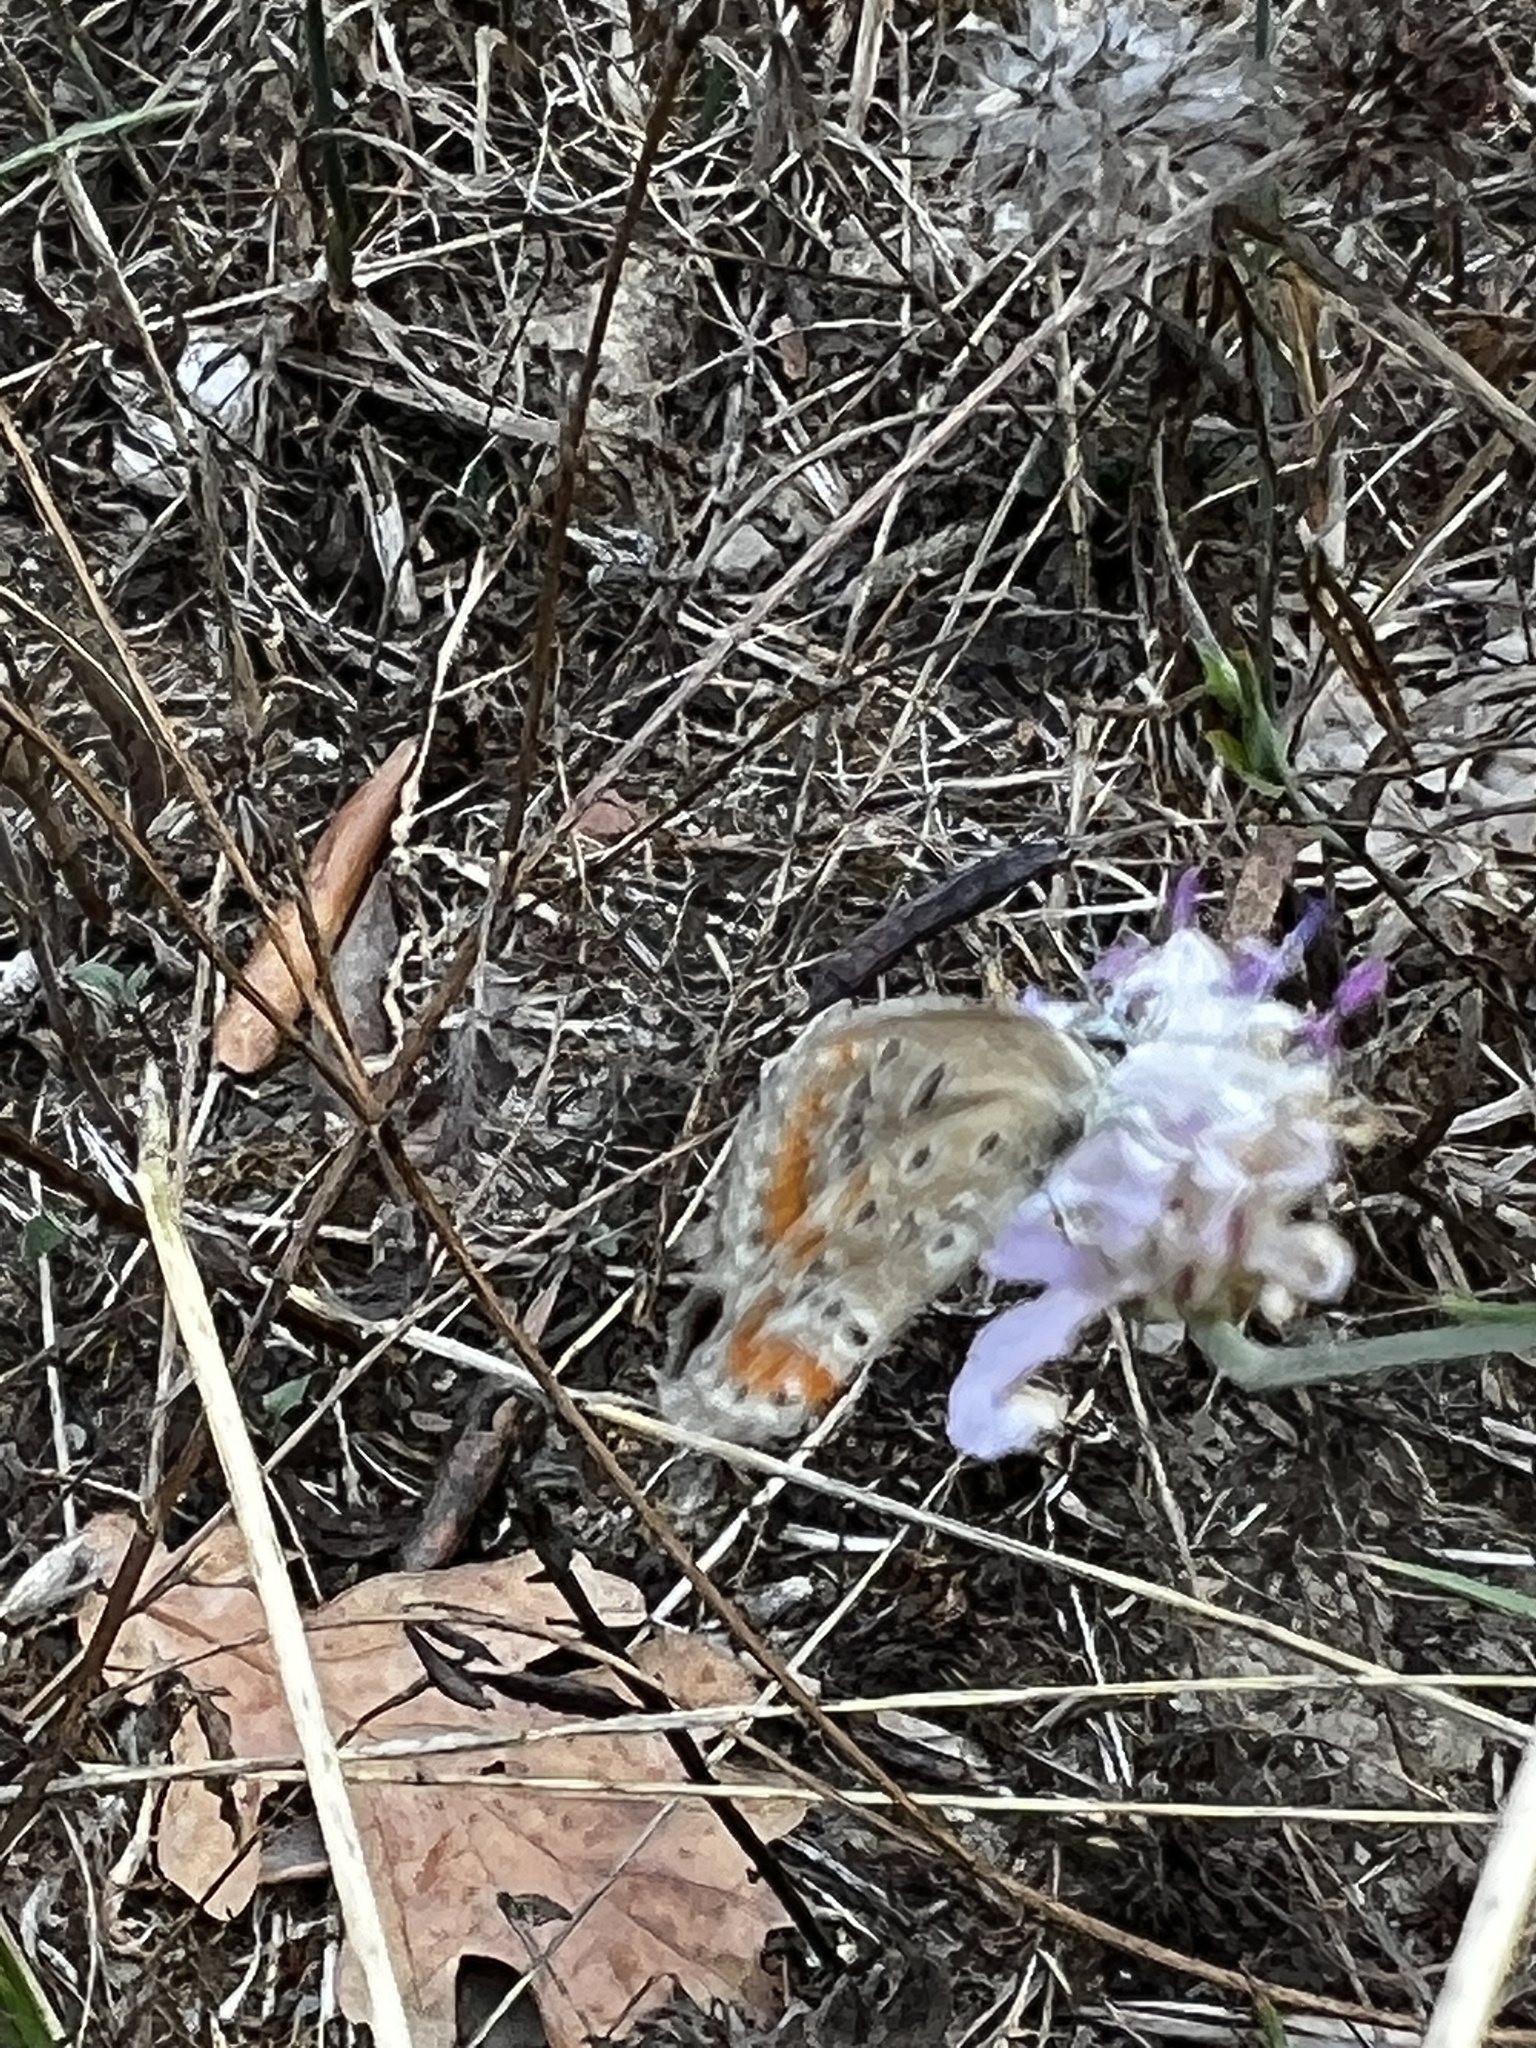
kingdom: Animalia
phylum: Arthropoda
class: Insecta
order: Lepidoptera
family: Lycaenidae
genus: Aricia
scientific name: Aricia agestis
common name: Brown argus
